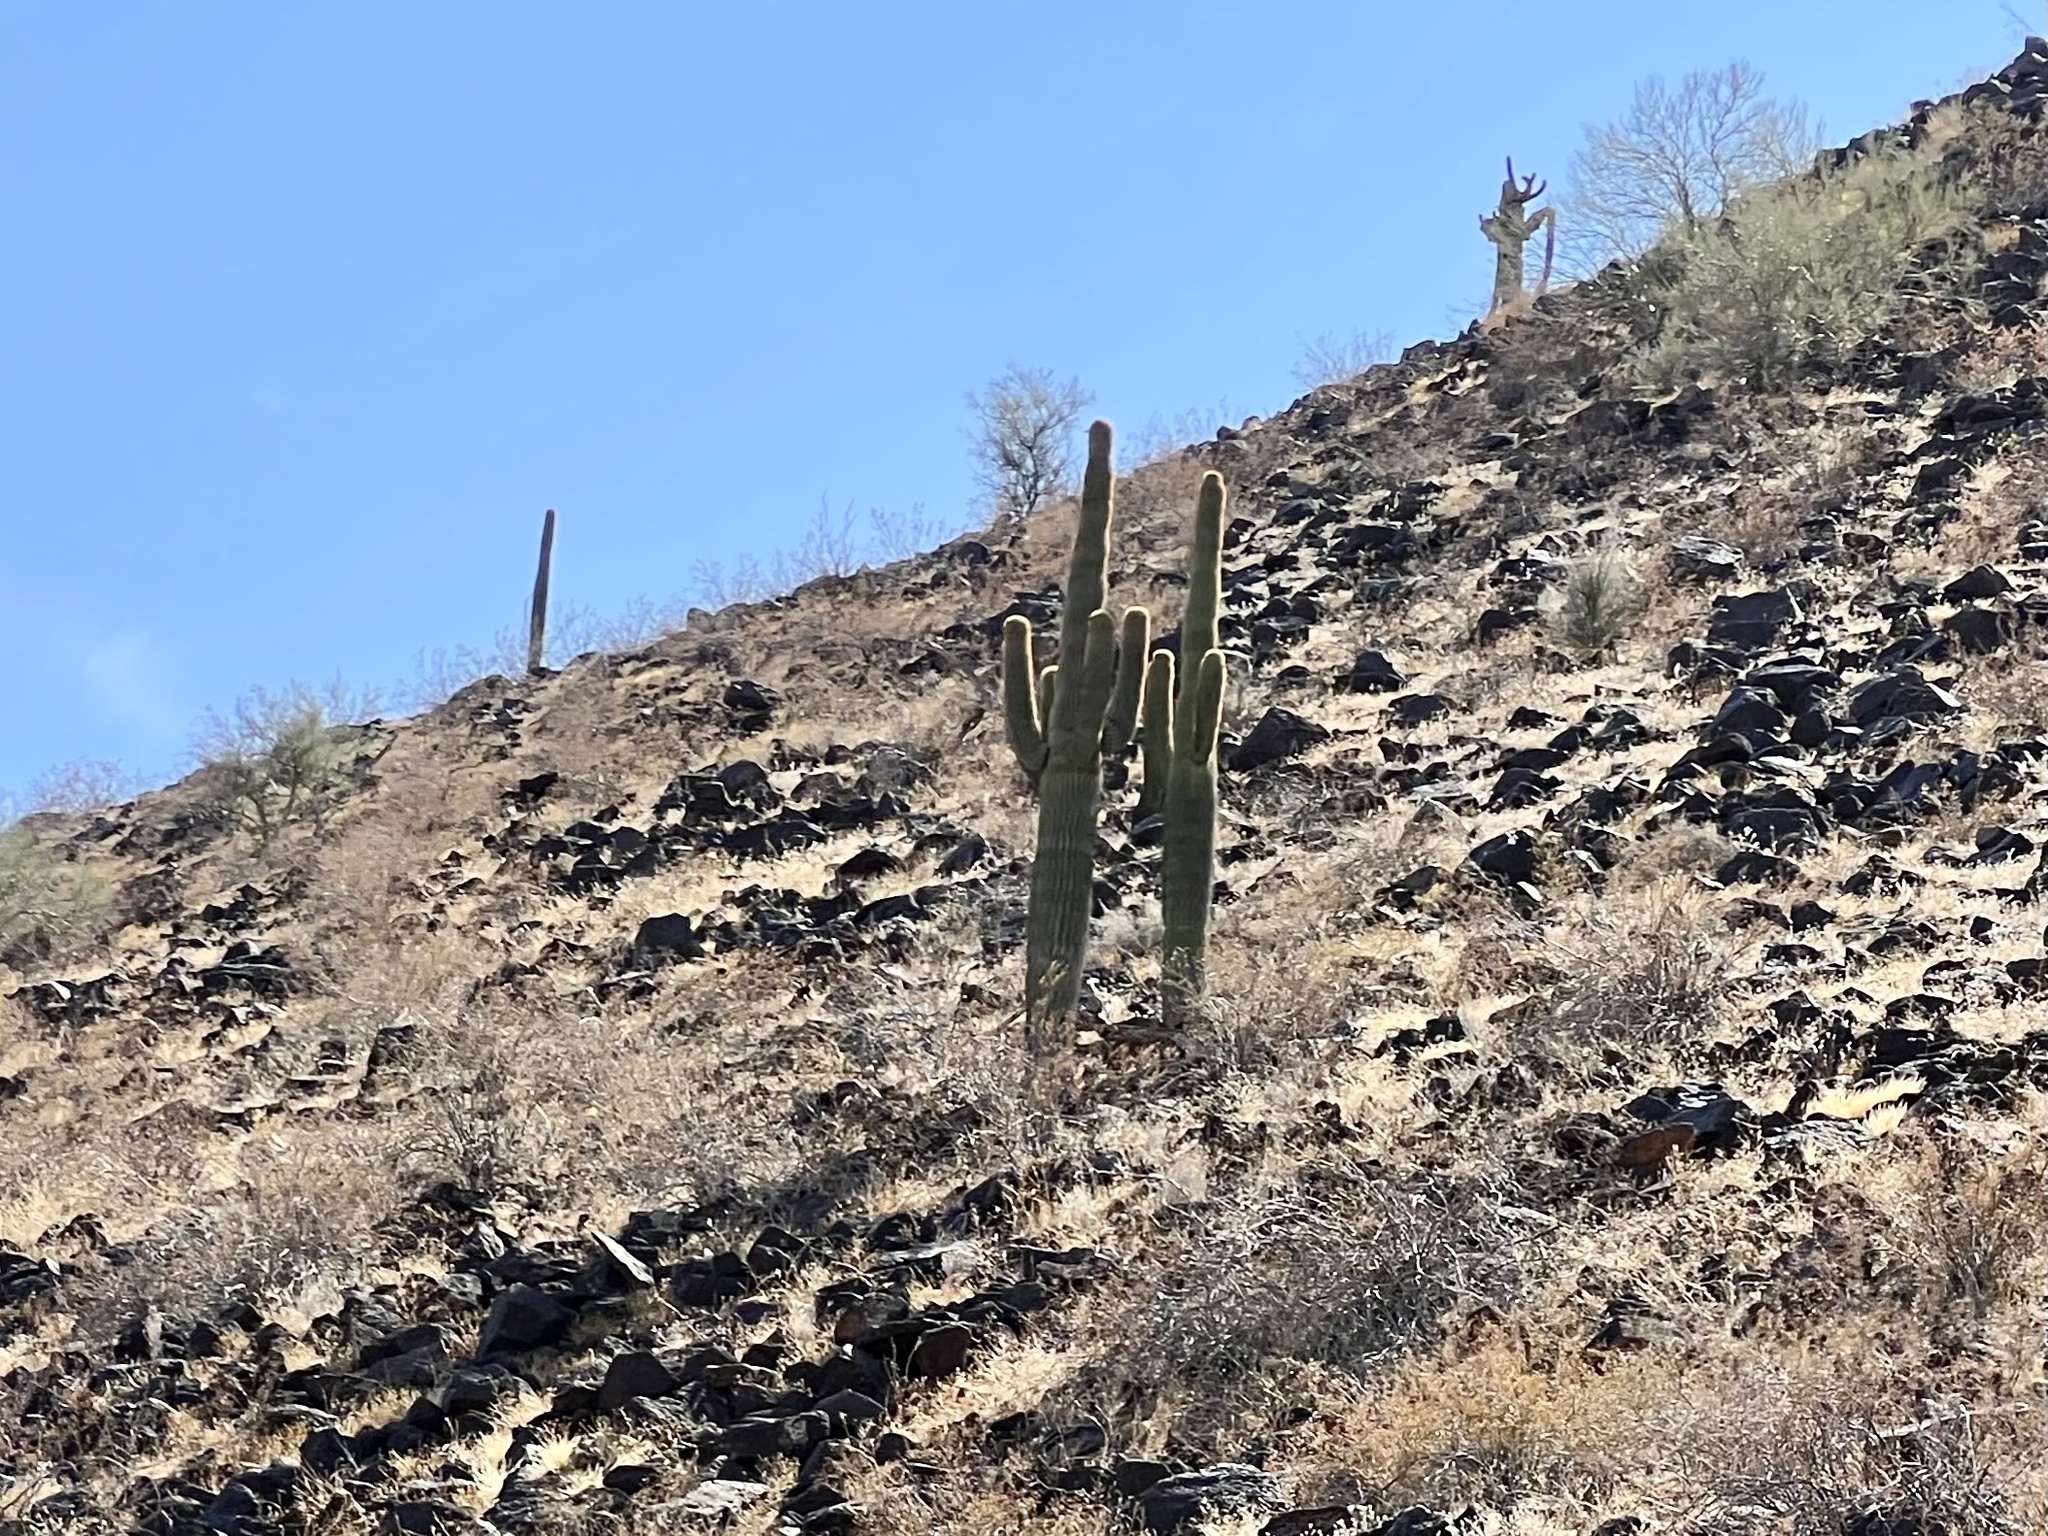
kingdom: Plantae
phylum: Tracheophyta
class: Magnoliopsida
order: Caryophyllales
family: Cactaceae
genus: Carnegiea
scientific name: Carnegiea gigantea
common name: Saguaro
